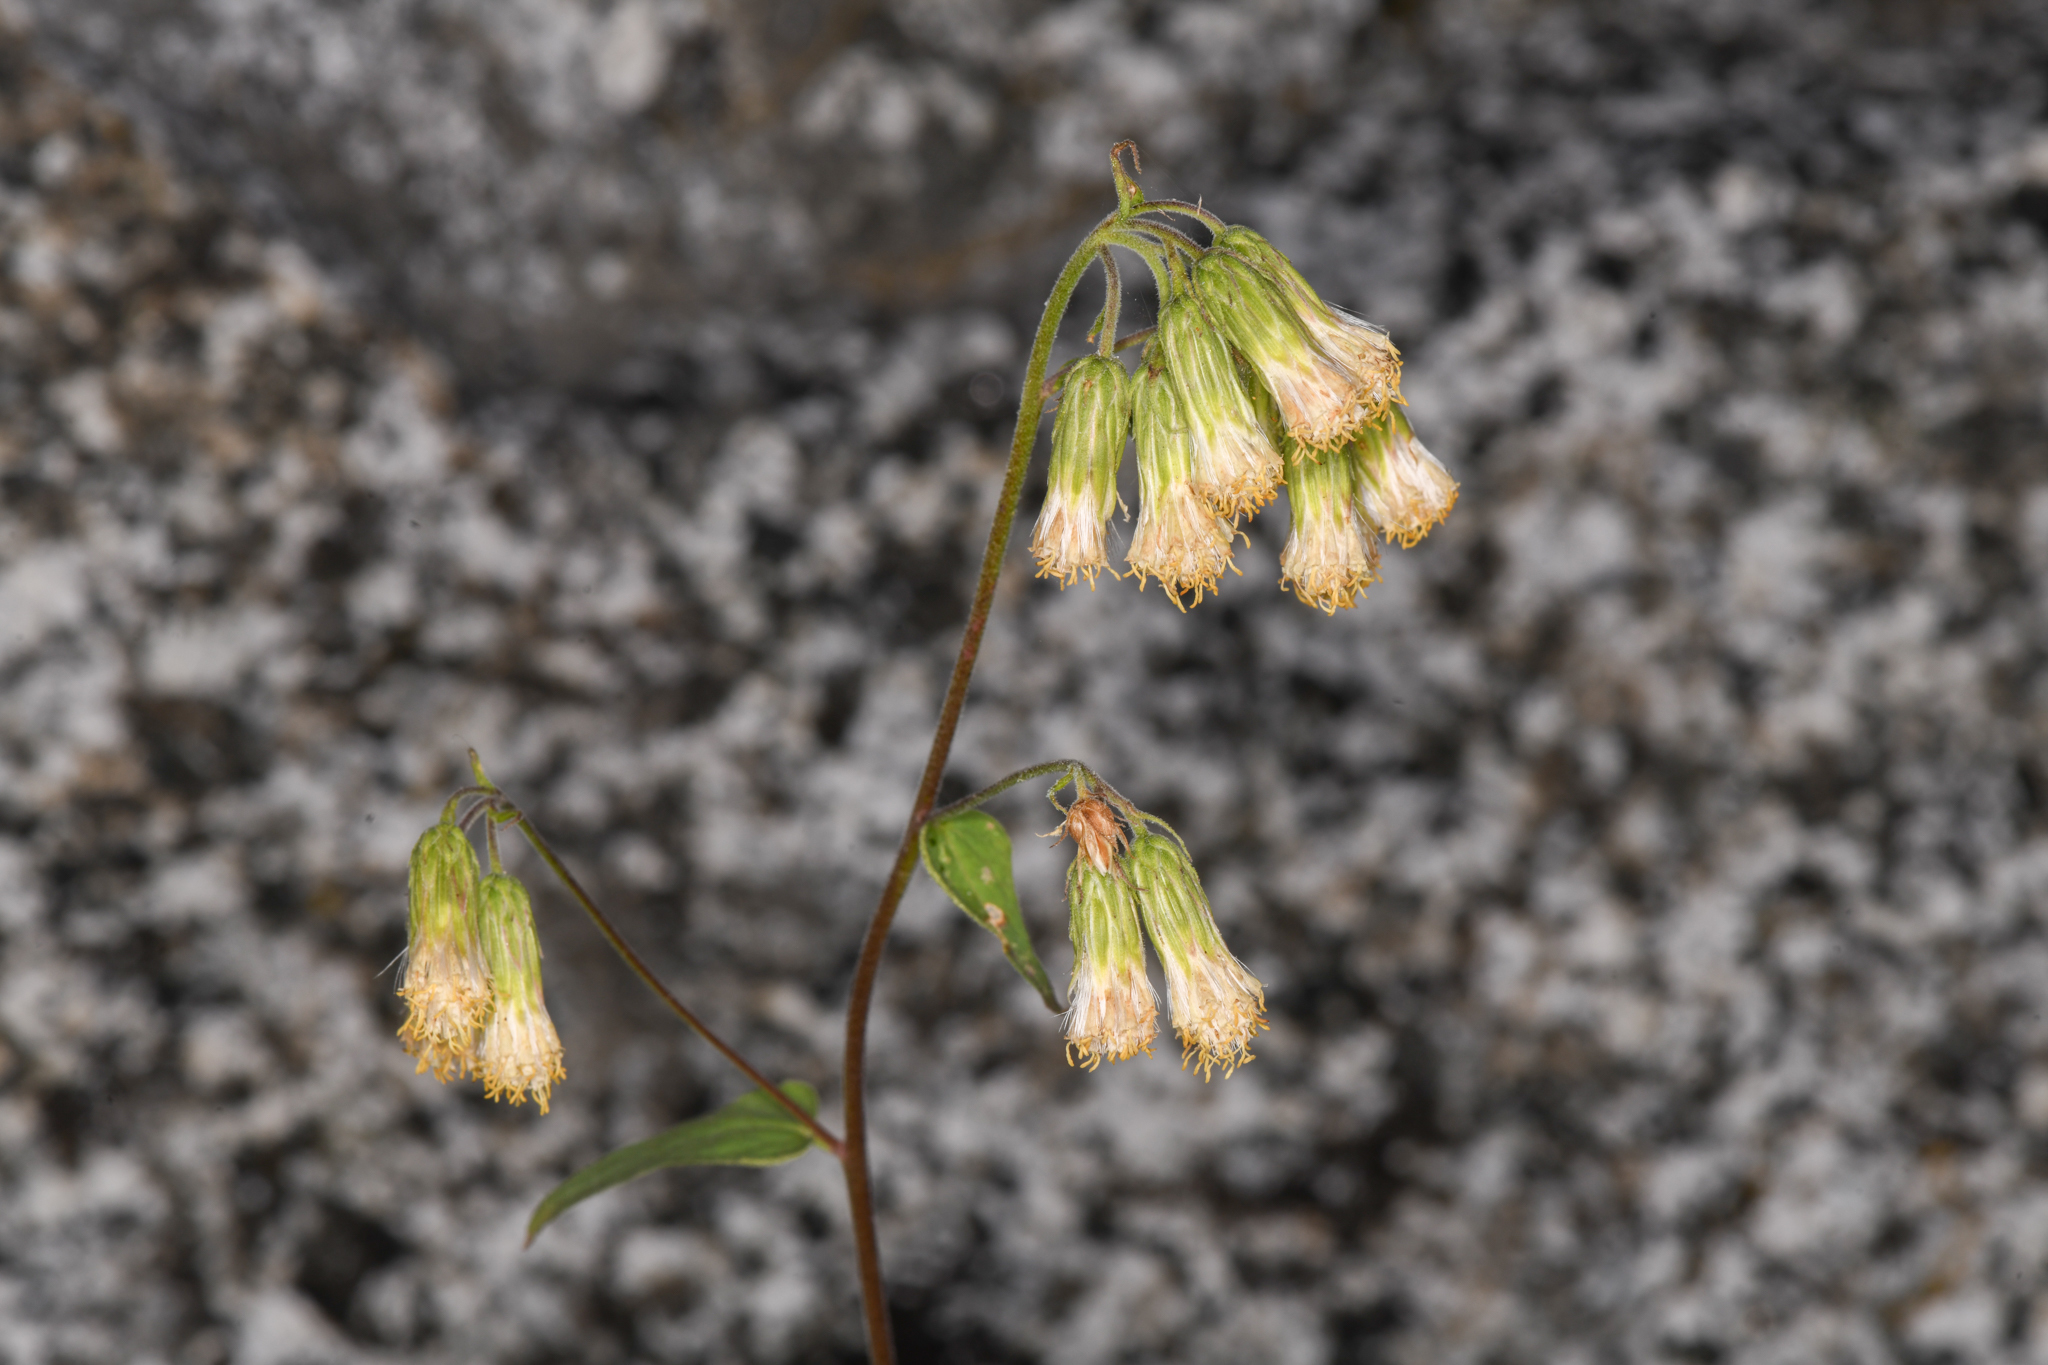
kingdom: Plantae
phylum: Tracheophyta
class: Magnoliopsida
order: Asterales
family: Asteraceae
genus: Brickellia
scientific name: Brickellia grandiflora
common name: Large-flowered brickellia
